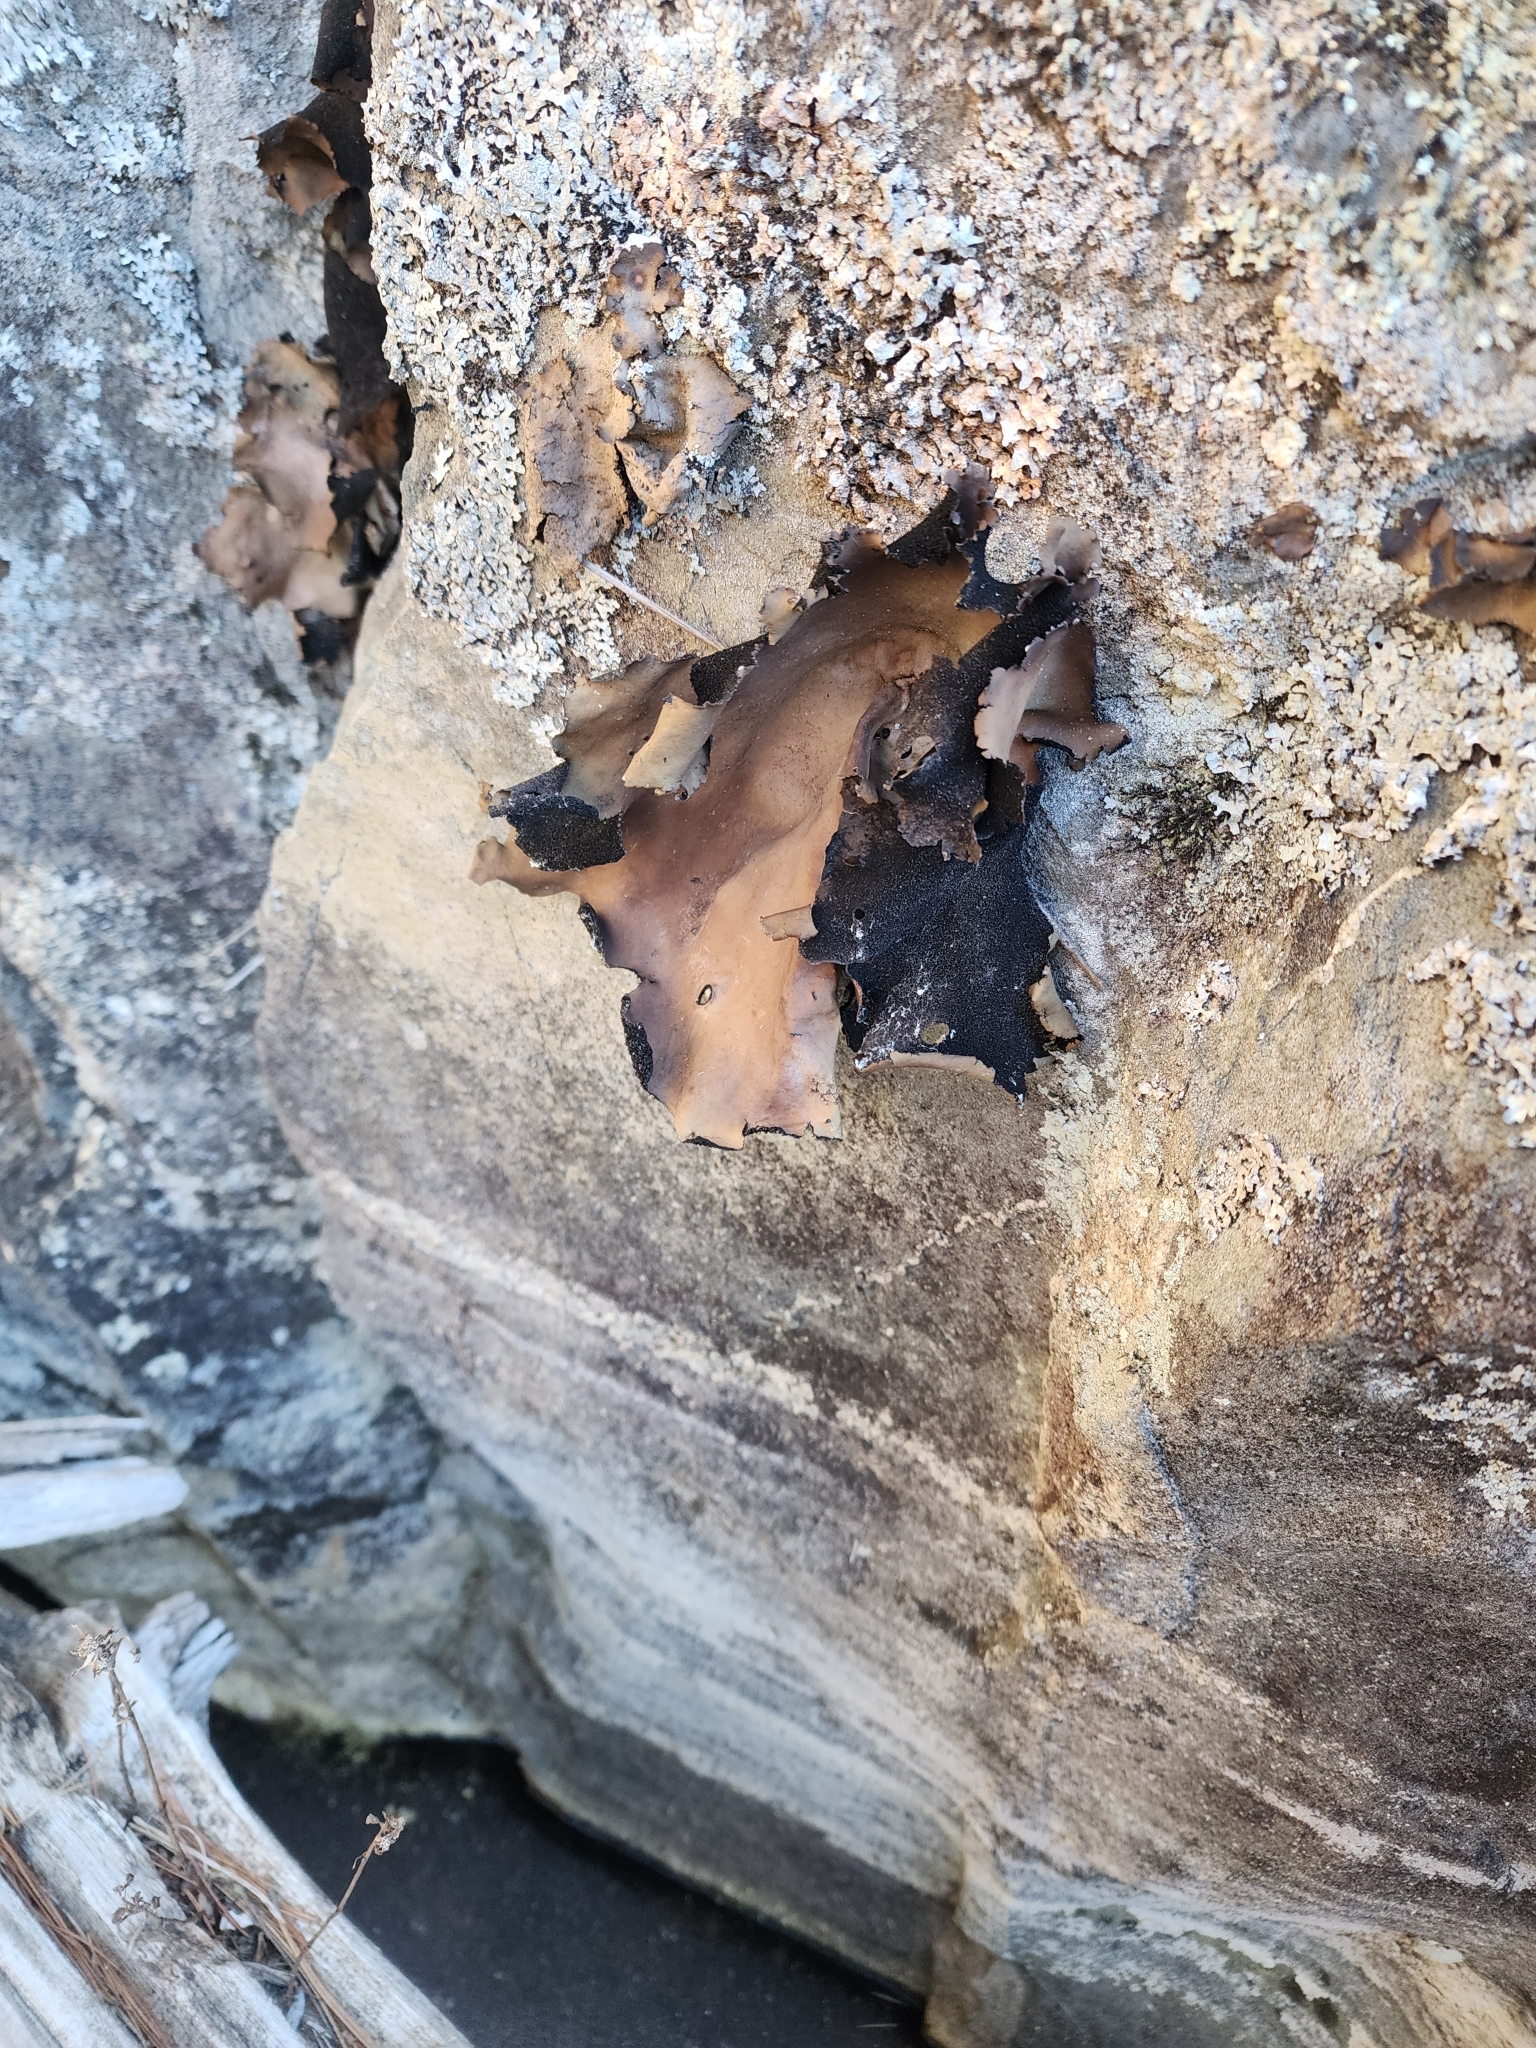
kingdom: Fungi
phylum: Ascomycota
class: Lecanoromycetes
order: Umbilicariales
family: Umbilicariaceae
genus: Umbilicaria
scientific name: Umbilicaria mammulata
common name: Smooth rock tripe
